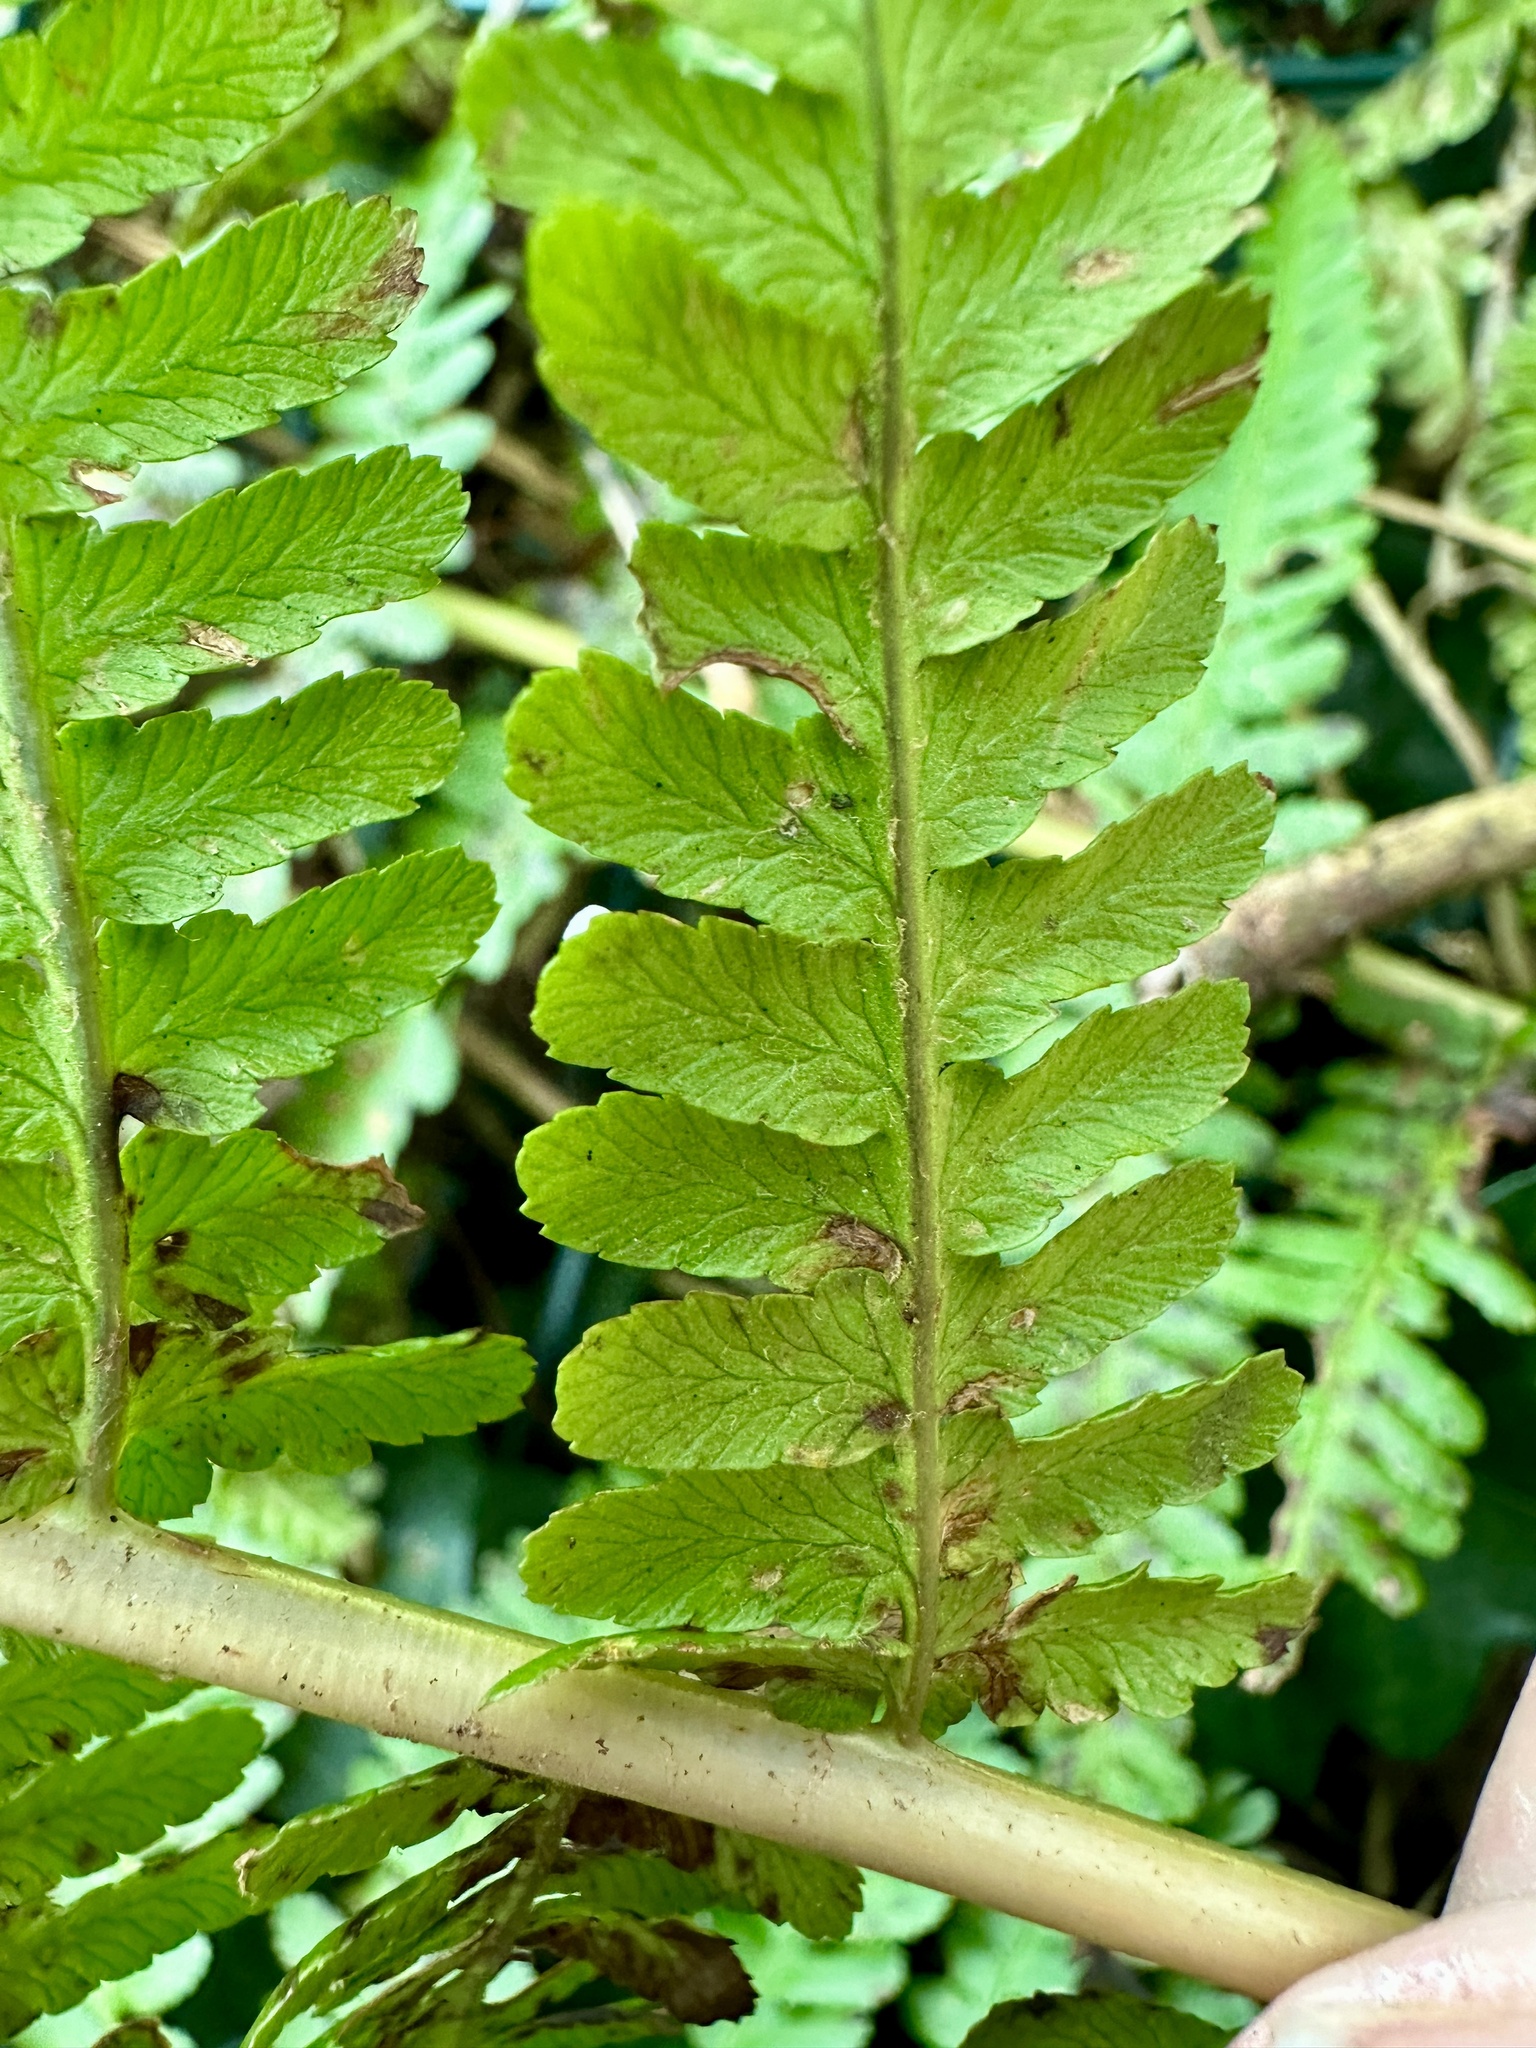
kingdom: Plantae
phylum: Tracheophyta
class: Polypodiopsida
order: Polypodiales
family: Dryopteridaceae
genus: Dryopteris
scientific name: Dryopteris filix-mas
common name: Male fern
